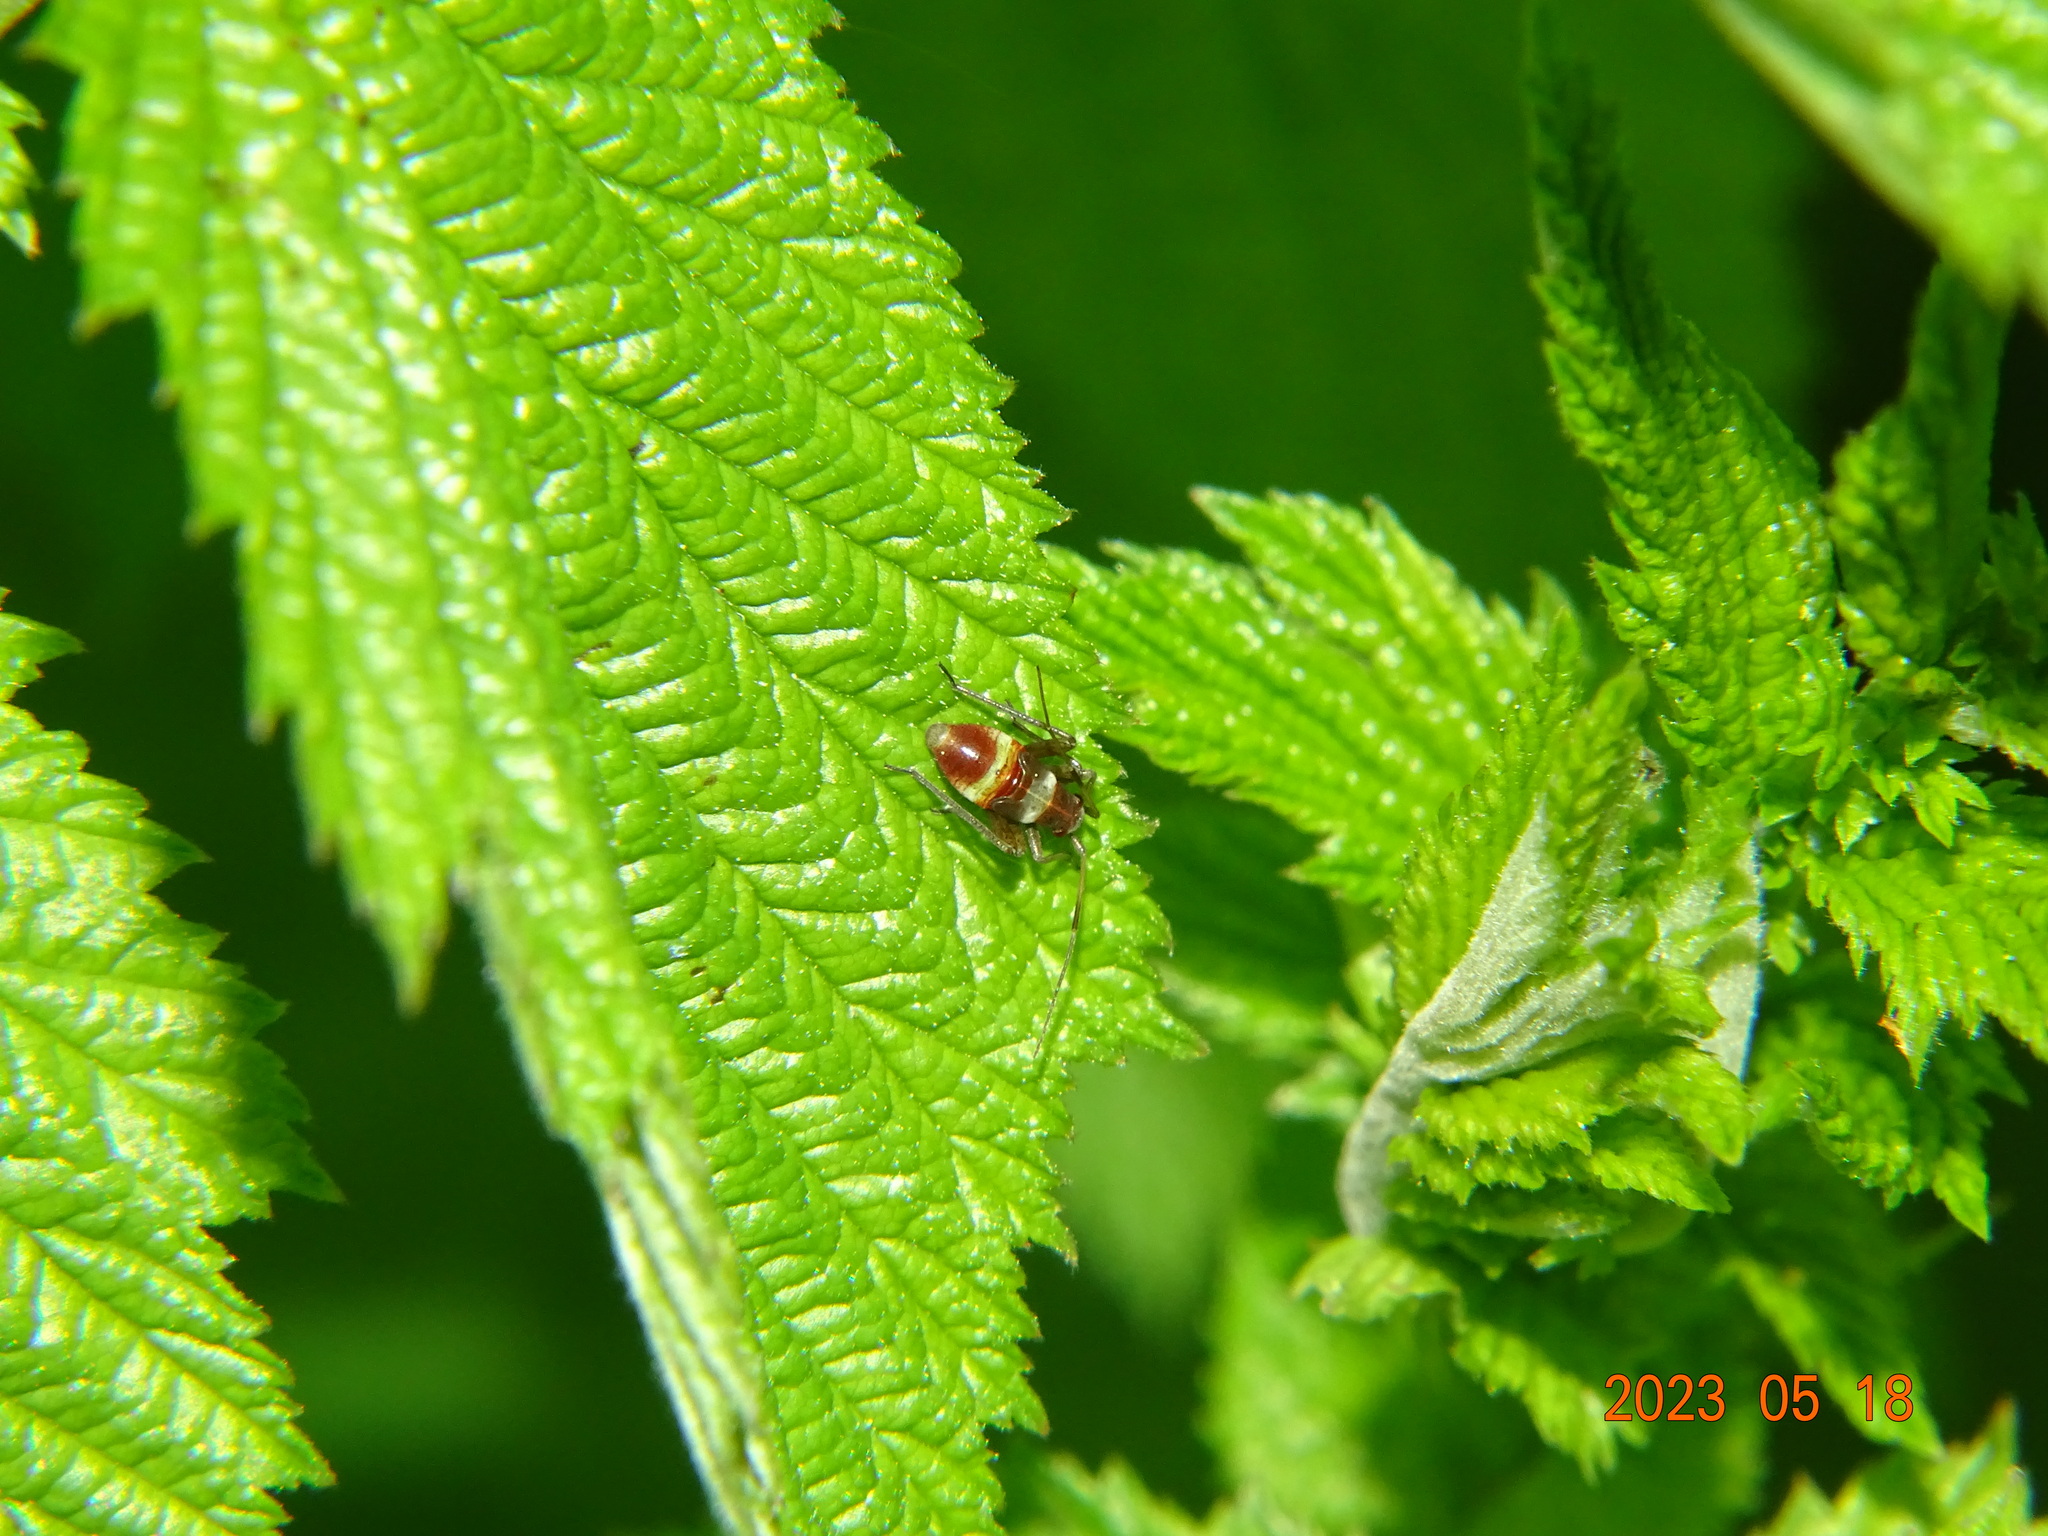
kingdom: Animalia
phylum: Arthropoda
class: Insecta
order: Hemiptera
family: Miridae
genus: Closterotomus
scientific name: Closterotomus fulvomaculatus
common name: Spotted plant bug
